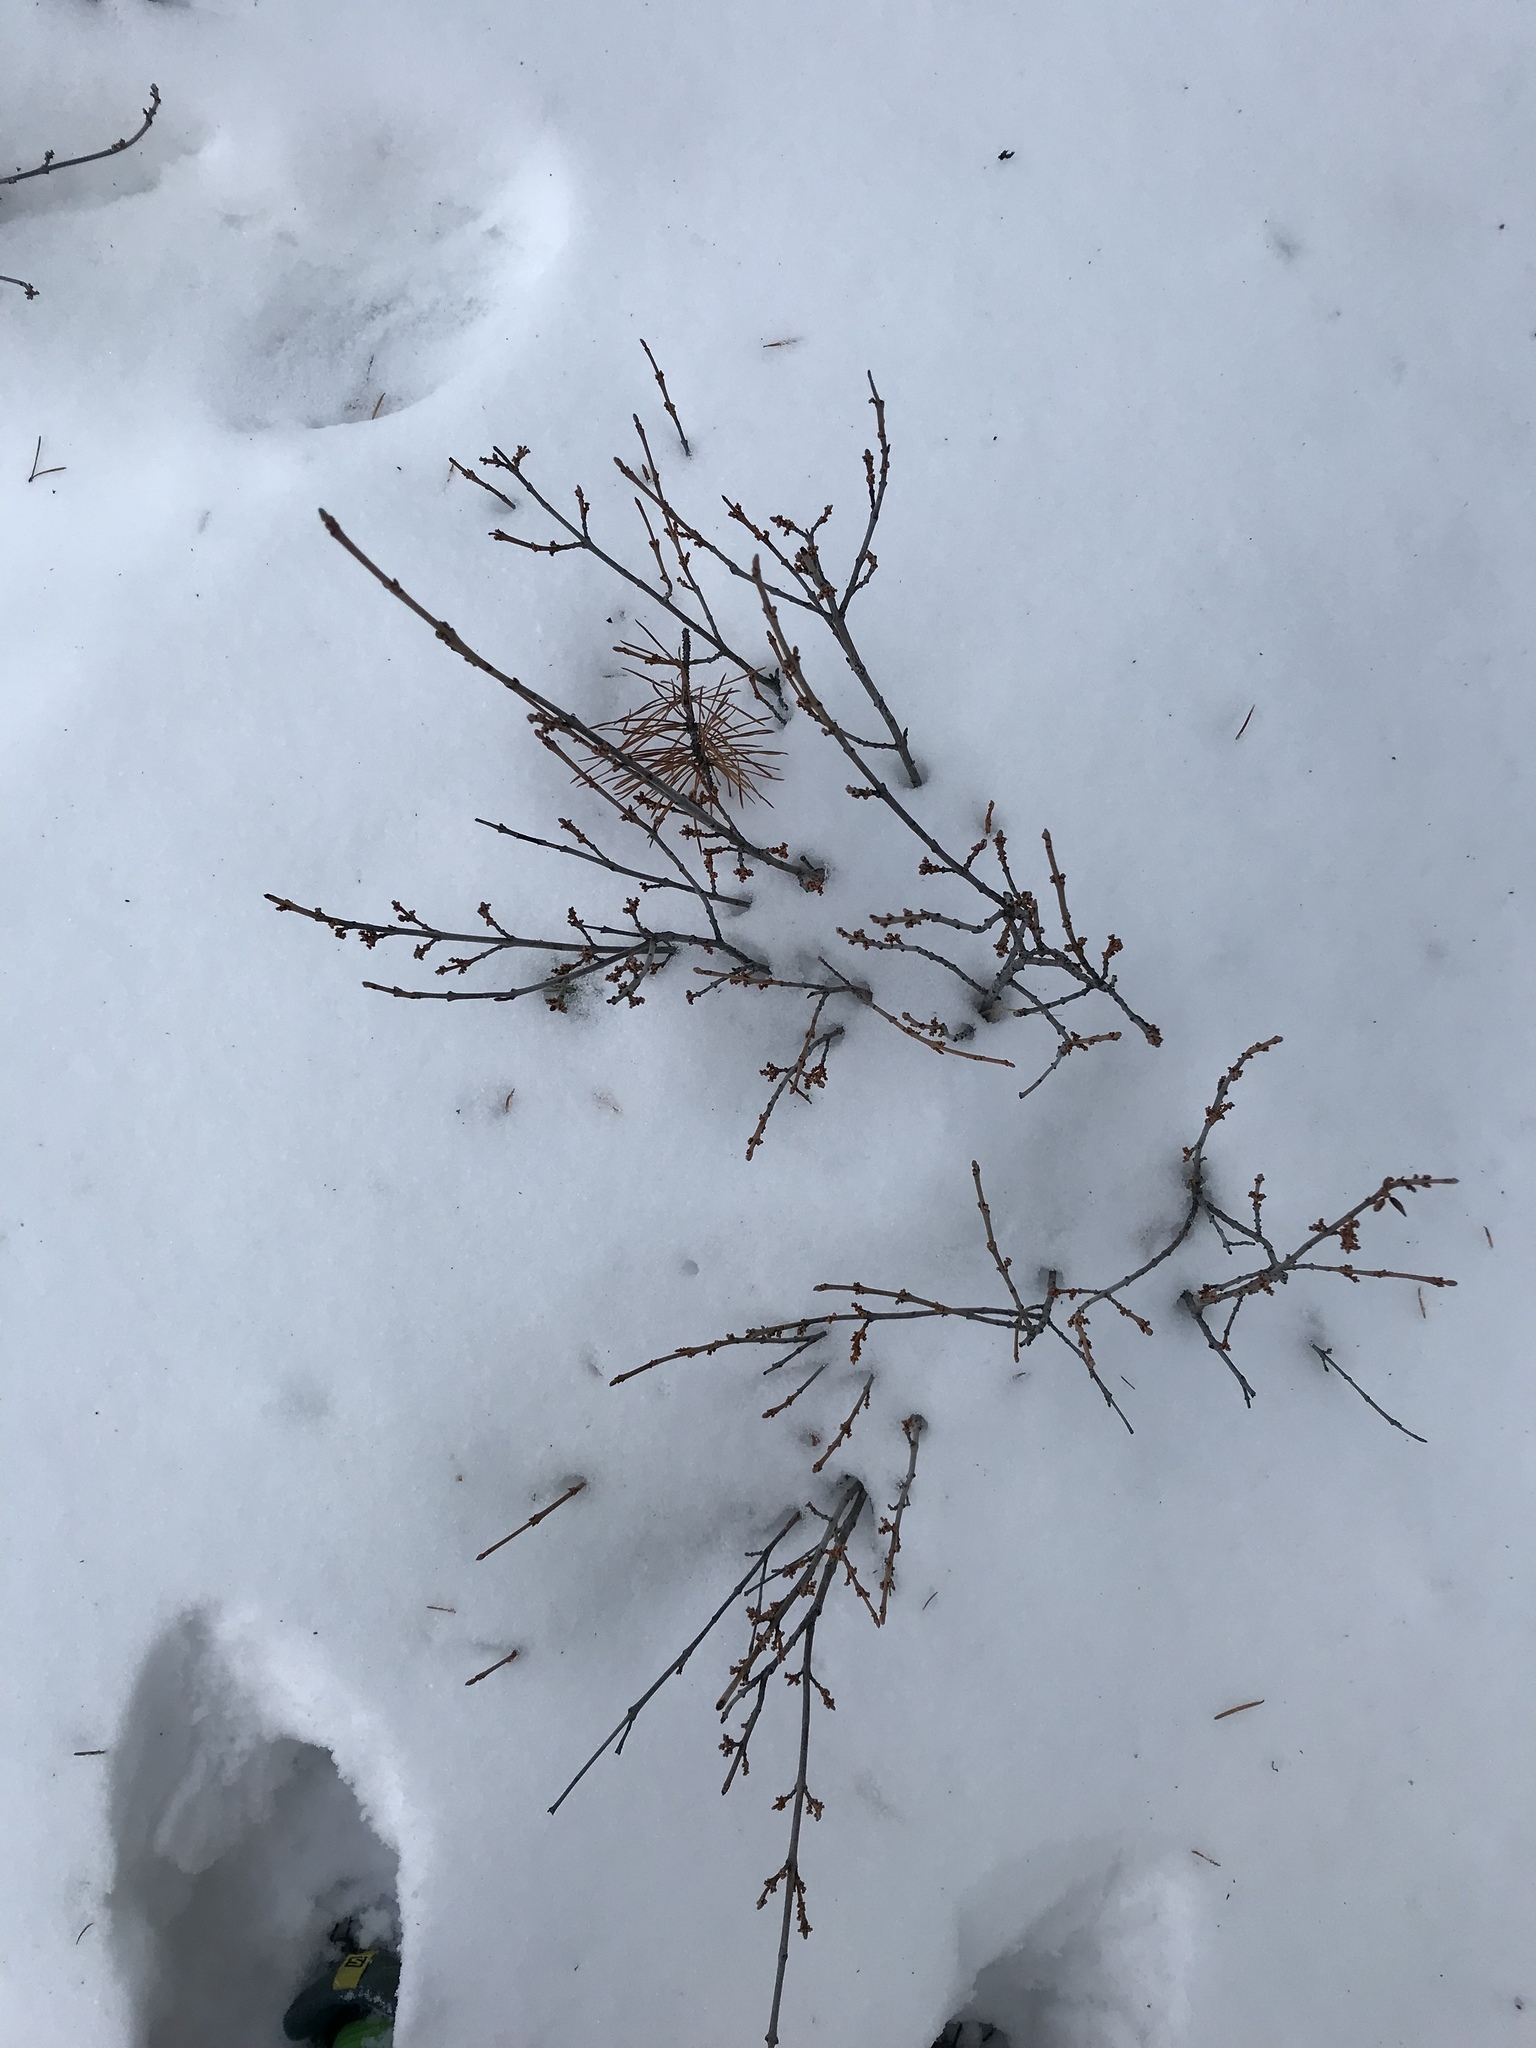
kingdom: Plantae
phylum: Tracheophyta
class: Magnoliopsida
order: Rosales
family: Elaeagnaceae
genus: Shepherdia
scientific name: Shepherdia canadensis
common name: Soapberry
